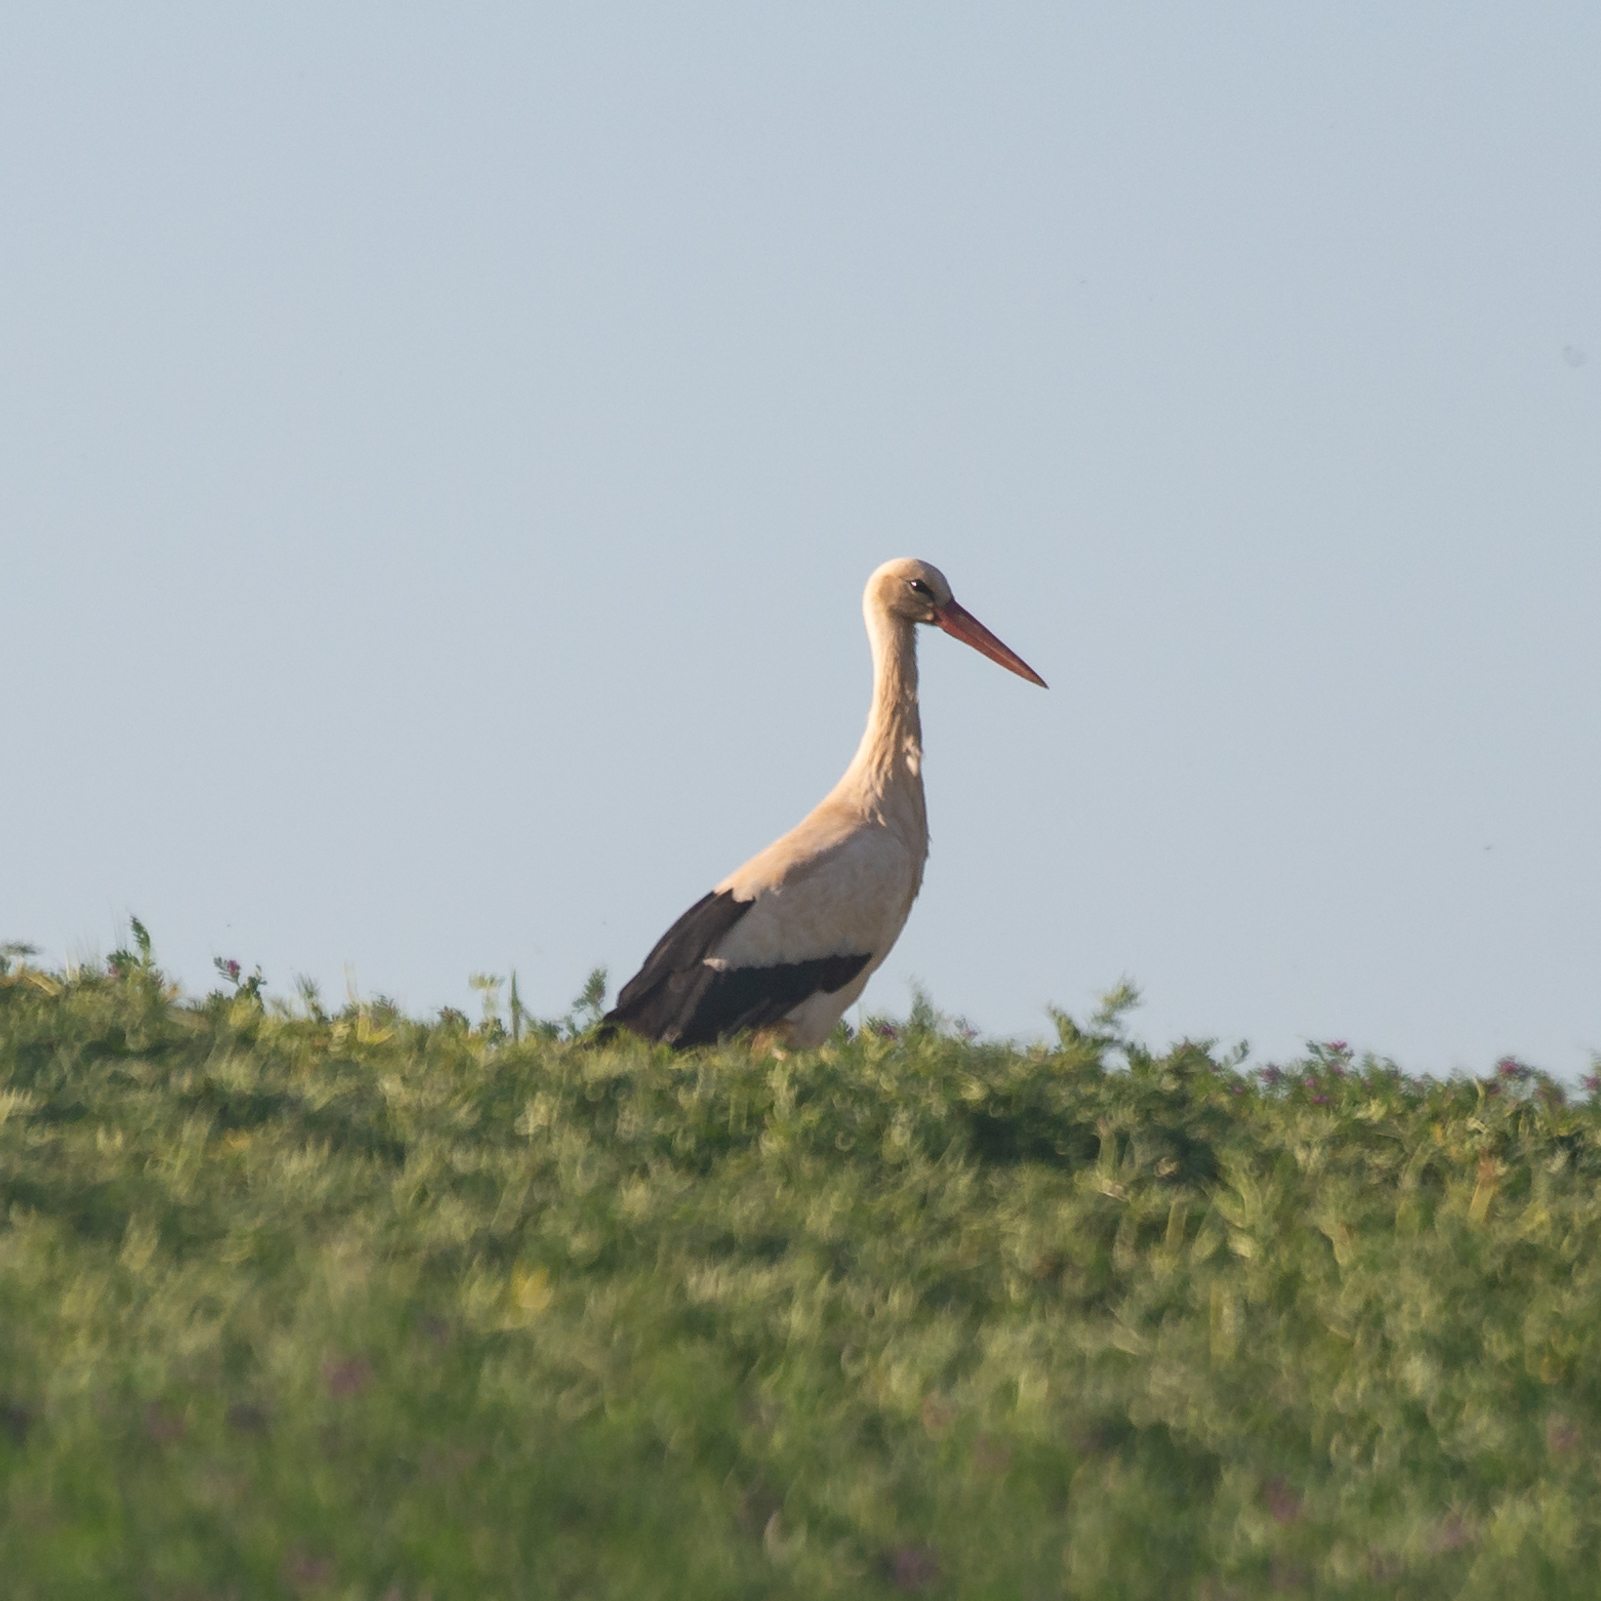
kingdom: Animalia
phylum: Chordata
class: Aves
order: Ciconiiformes
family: Ciconiidae
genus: Ciconia
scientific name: Ciconia ciconia
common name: White stork
